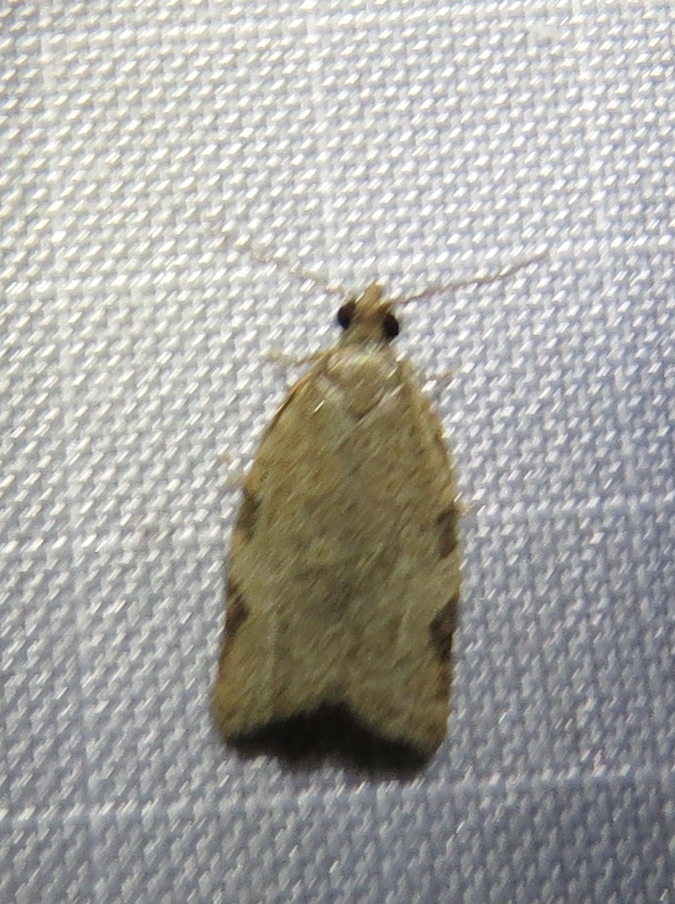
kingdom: Animalia
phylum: Arthropoda
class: Insecta
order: Lepidoptera
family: Tortricidae
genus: Clepsis
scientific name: Clepsis virescana
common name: Greenish apple moth
